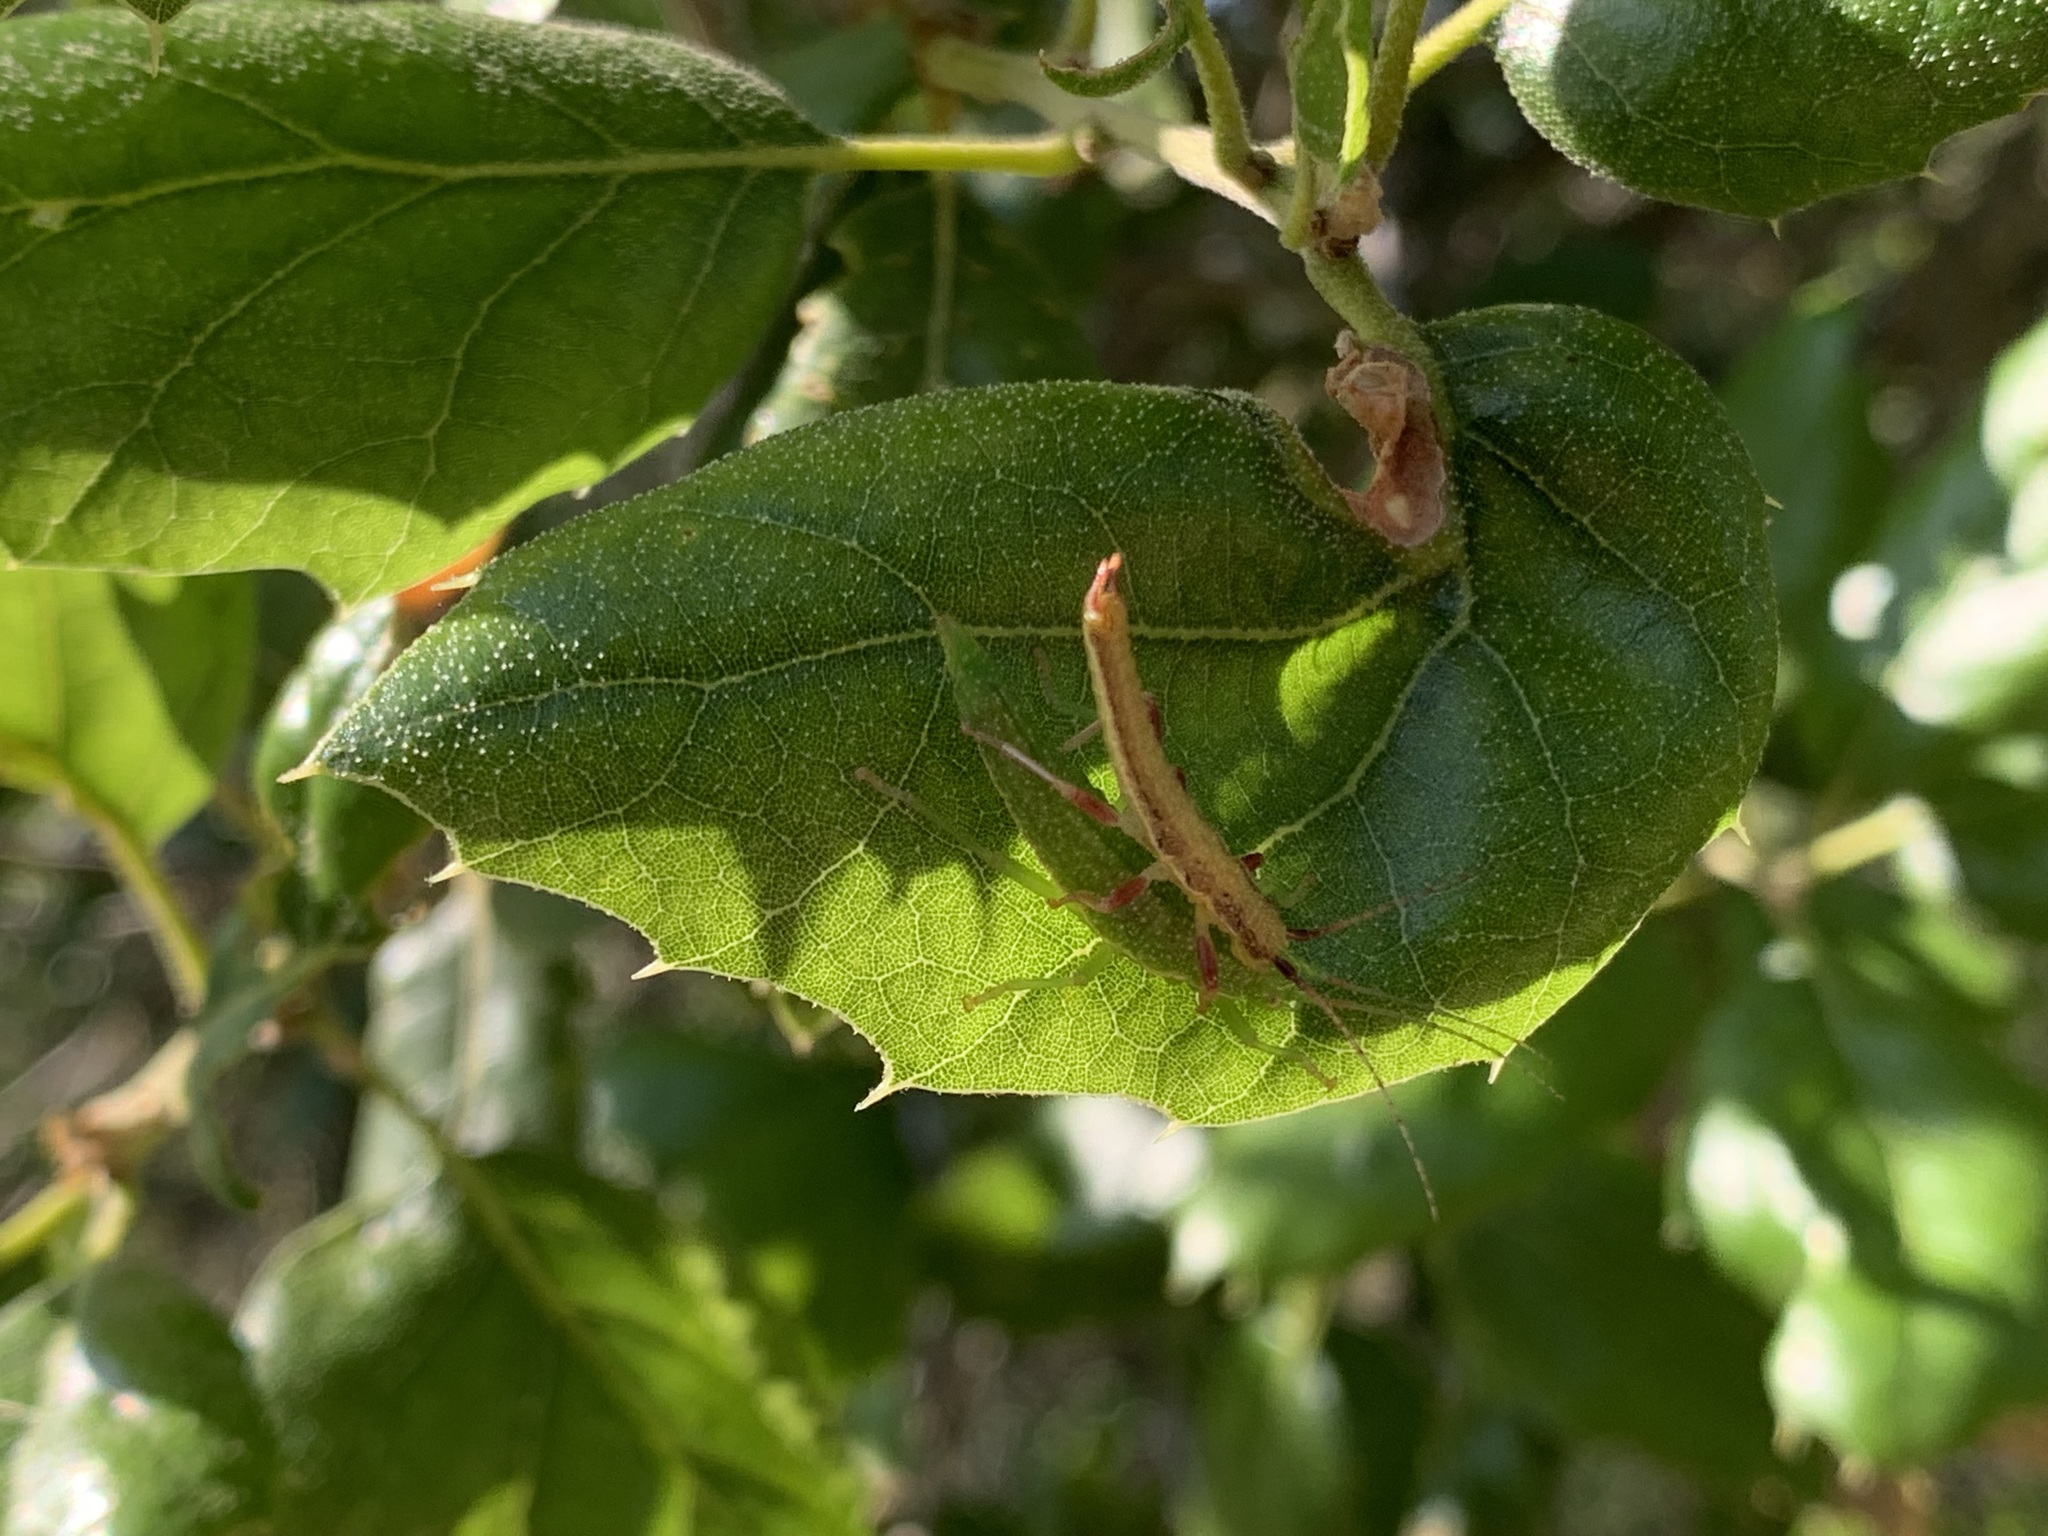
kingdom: Animalia
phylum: Arthropoda
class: Insecta
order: Phasmida
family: Timematidae
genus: Timema
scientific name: Timema californicum
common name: California timema
